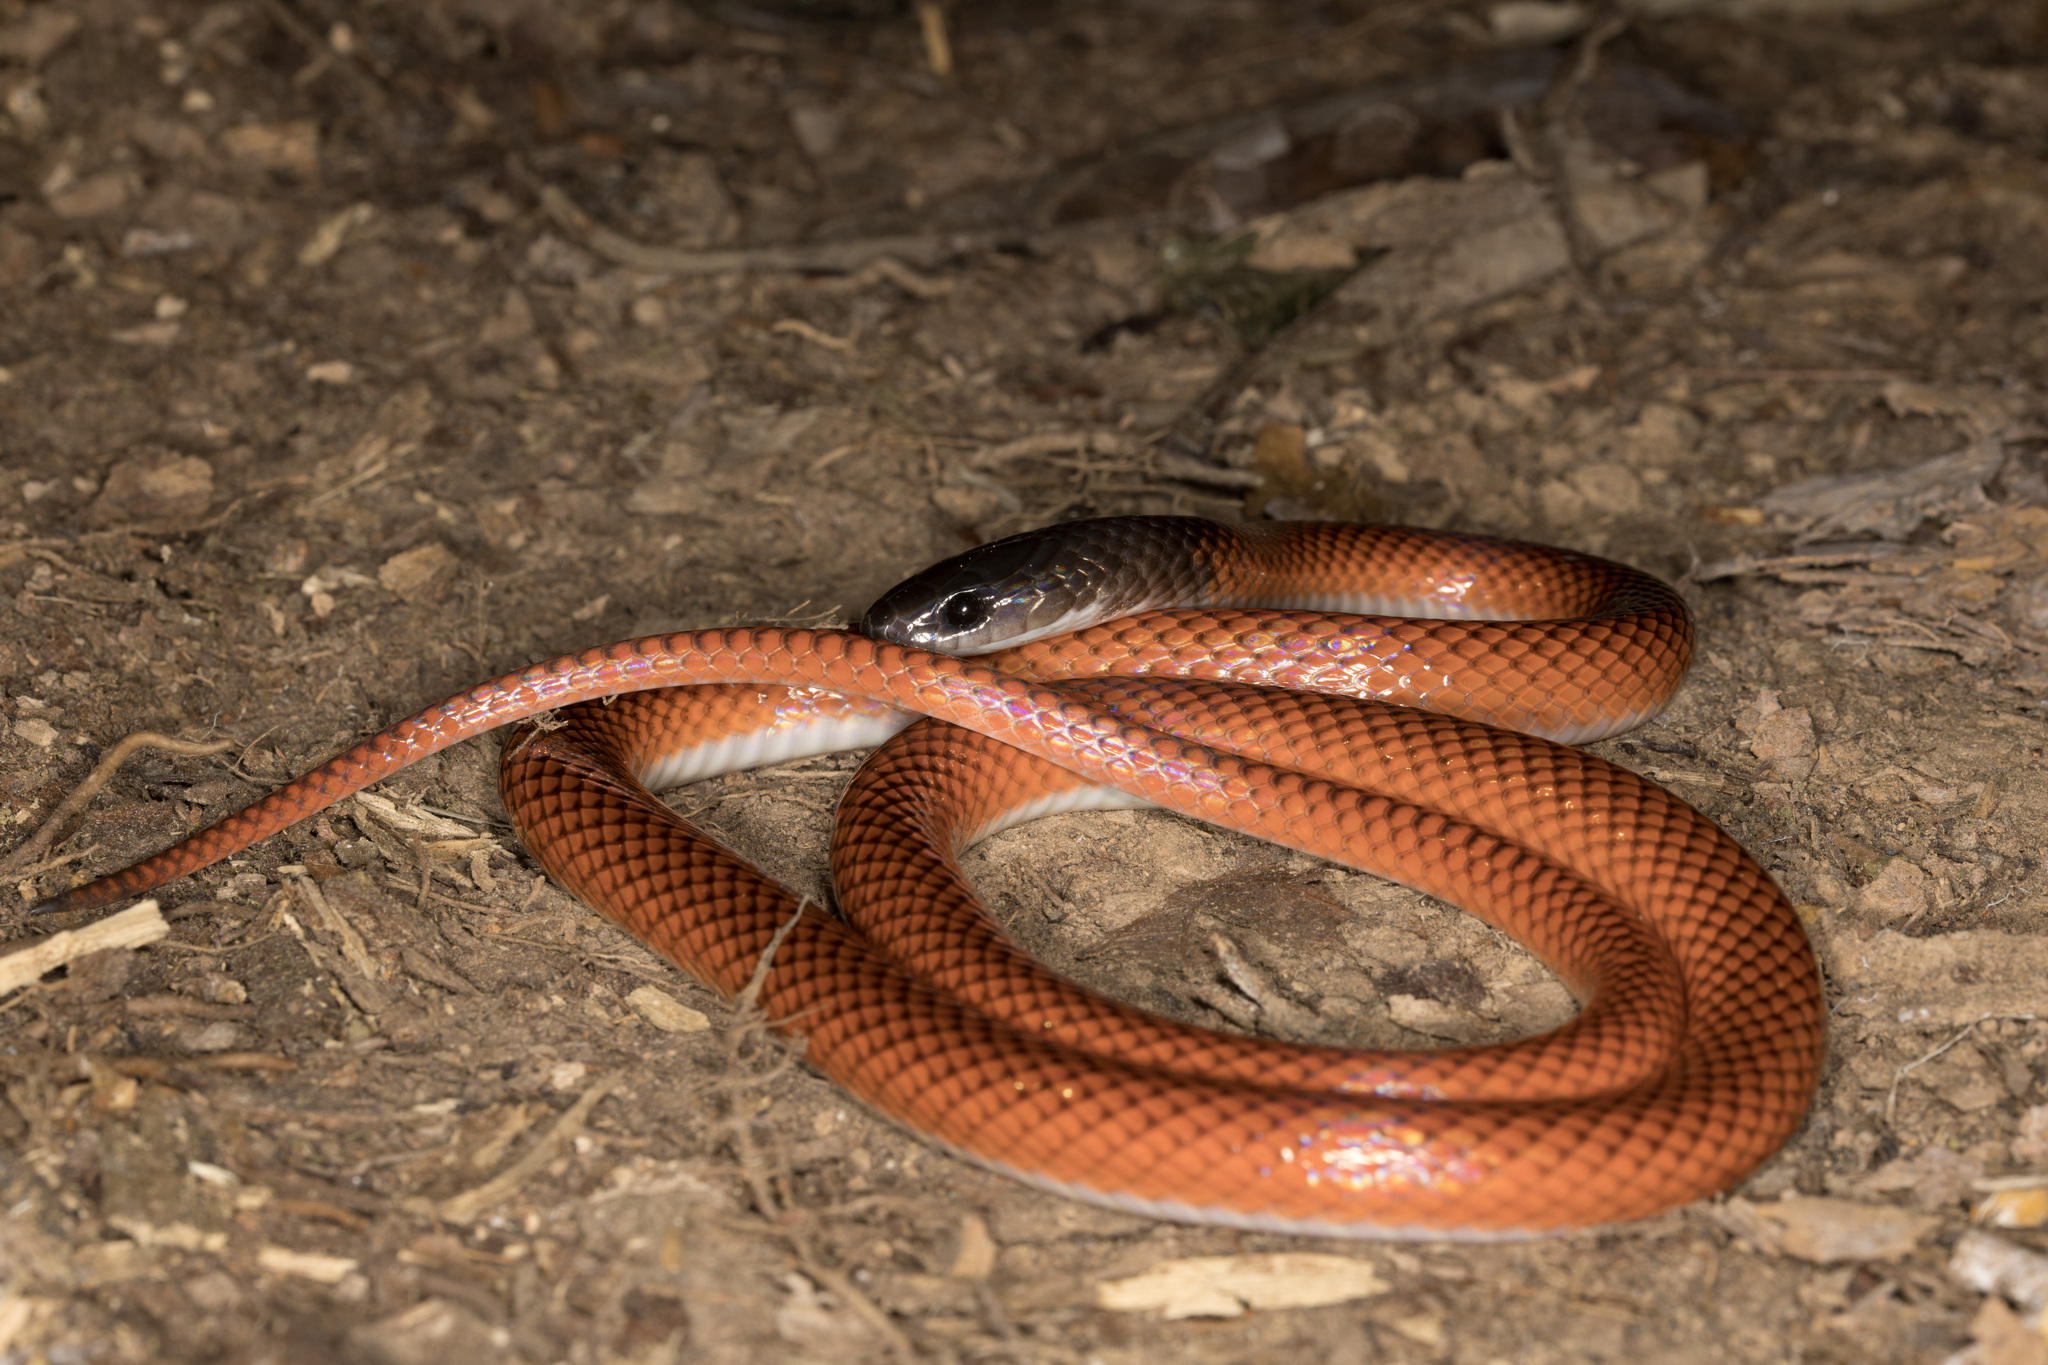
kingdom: Animalia
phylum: Chordata
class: Squamata
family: Colubridae
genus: Drepanoides
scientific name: Drepanoides anomalus
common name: Black-collared snake
